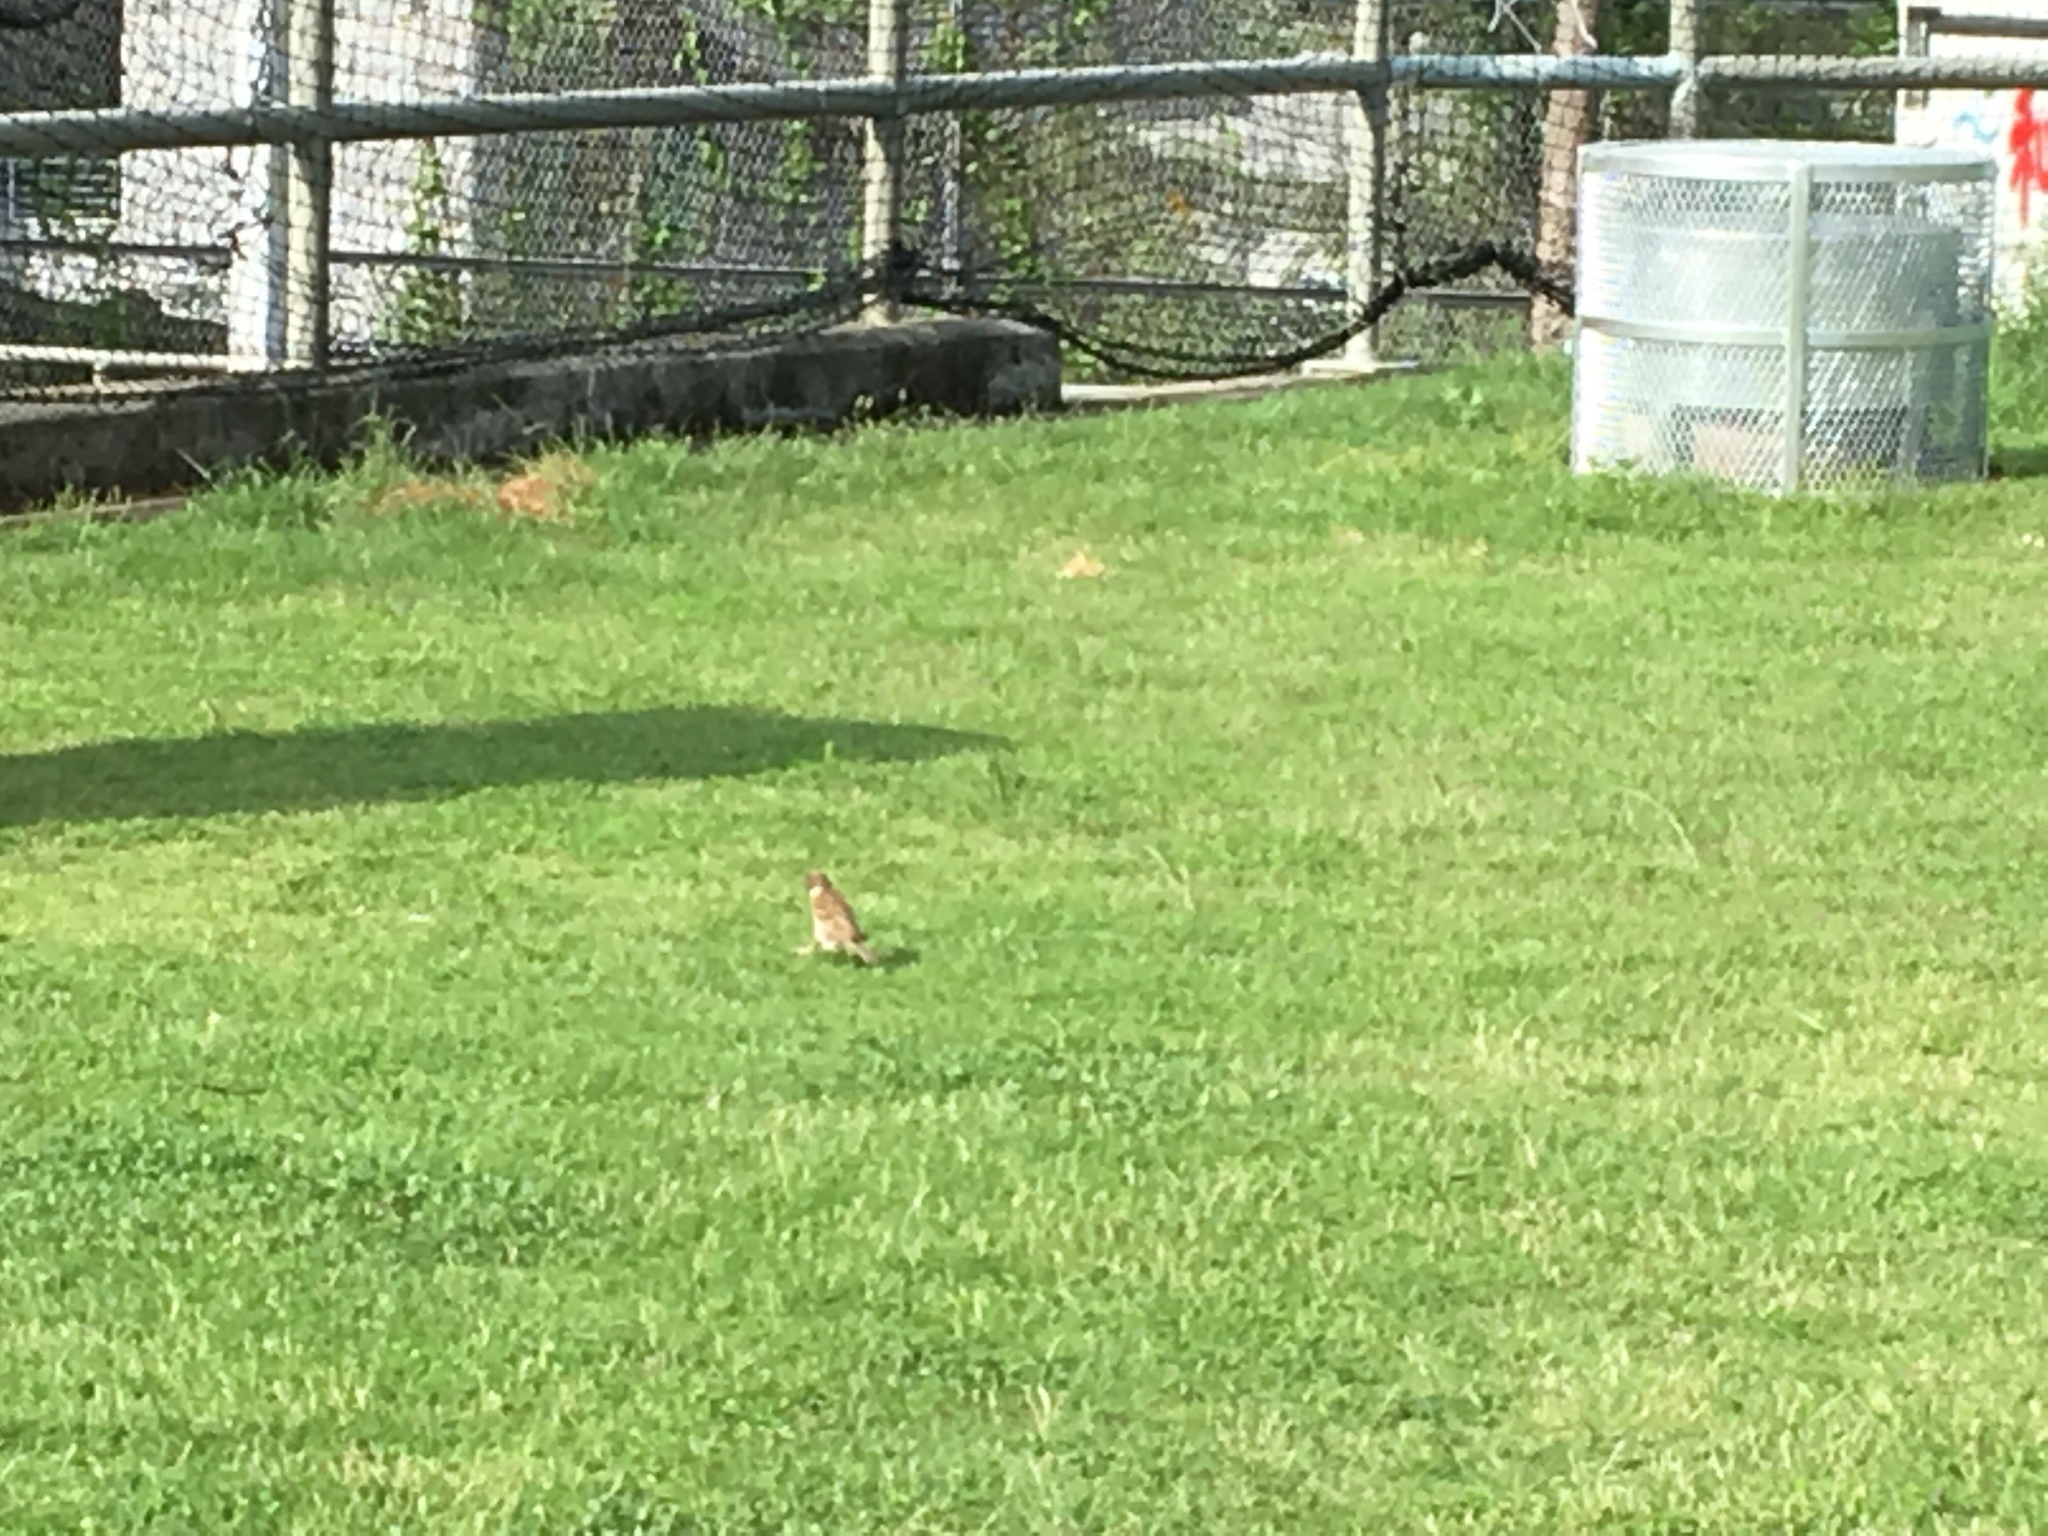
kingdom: Animalia
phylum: Chordata
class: Aves
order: Passeriformes
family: Passeridae
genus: Passer
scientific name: Passer montanus
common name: Eurasian tree sparrow
